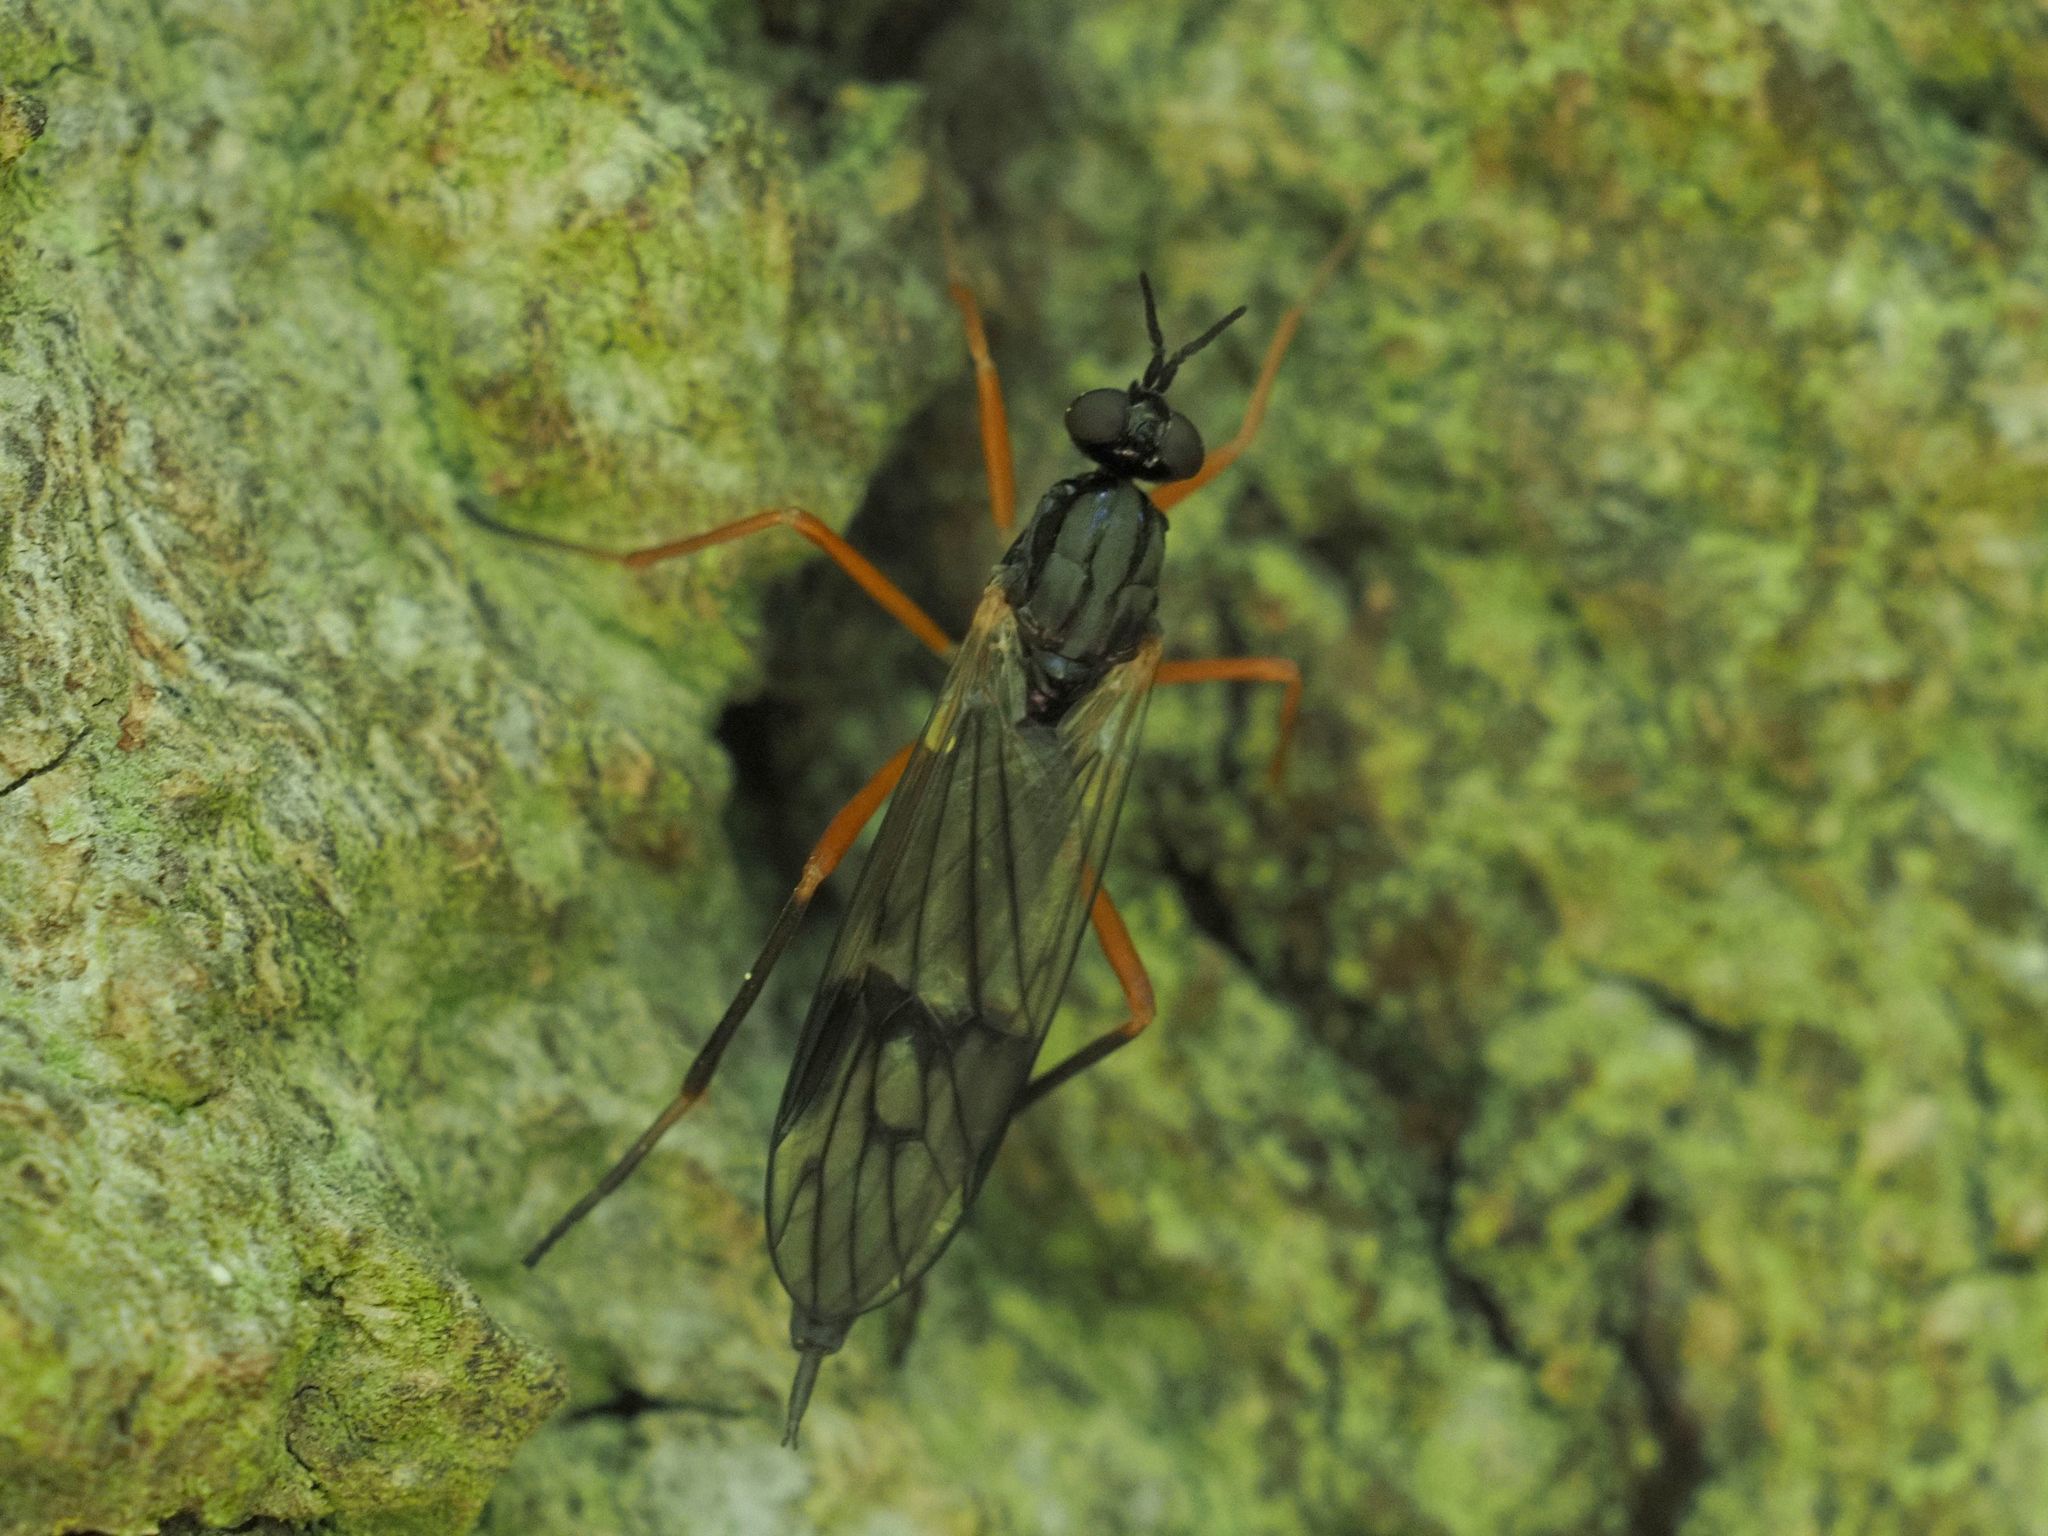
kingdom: Animalia
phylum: Arthropoda
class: Insecta
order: Diptera
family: Xylophagidae
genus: Xylophagus
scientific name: Xylophagus ater
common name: Common awl-fly
